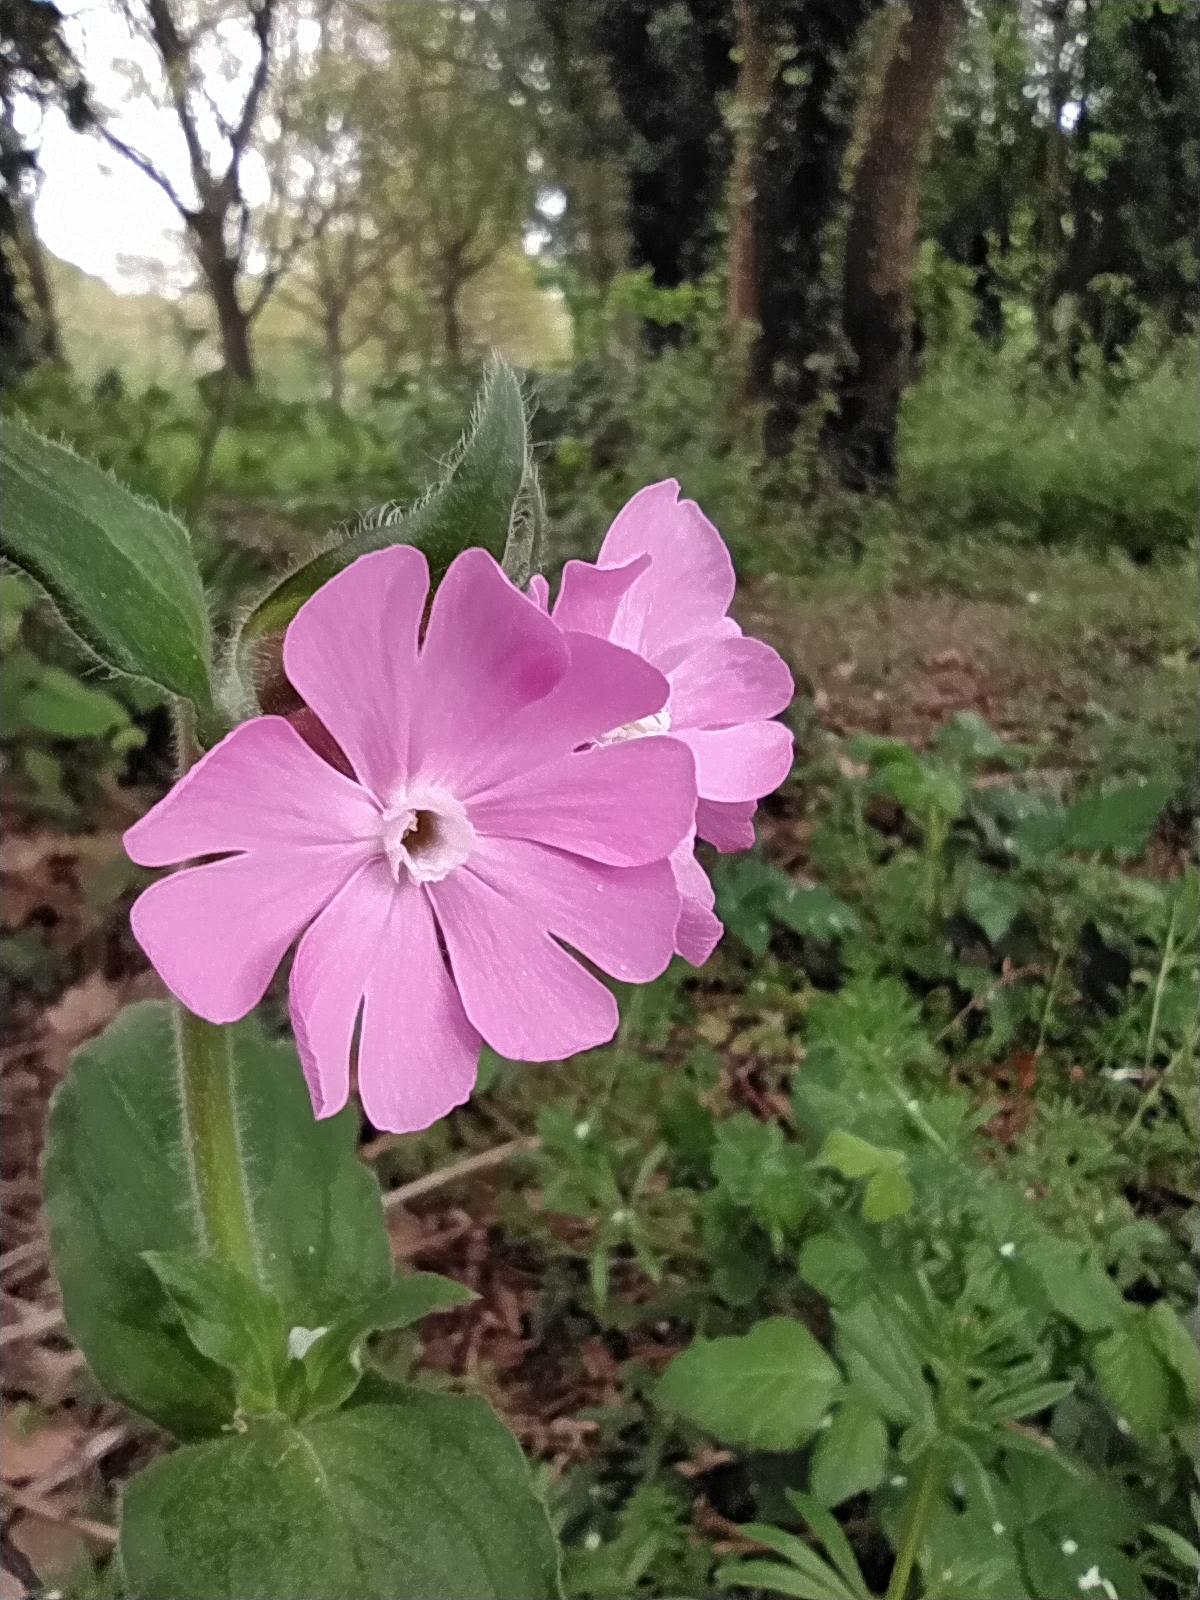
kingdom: Plantae
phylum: Tracheophyta
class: Magnoliopsida
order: Caryophyllales
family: Caryophyllaceae
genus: Silene
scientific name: Silene dioica
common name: Red campion
